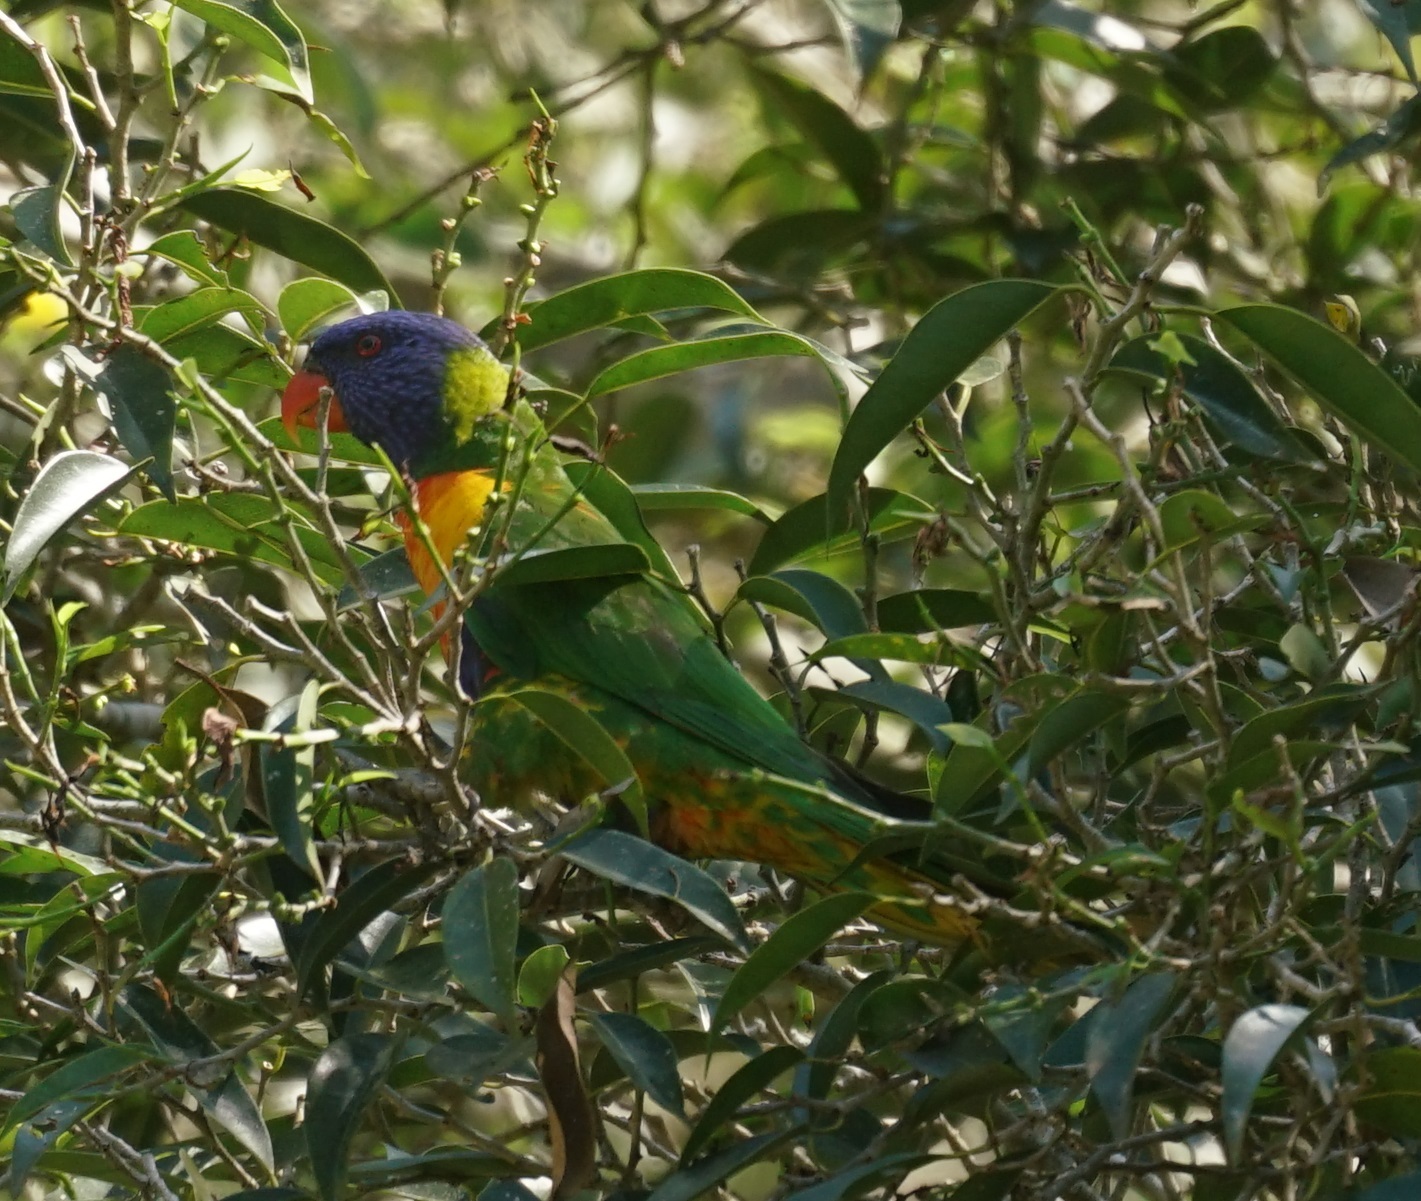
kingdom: Animalia
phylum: Chordata
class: Aves
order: Psittaciformes
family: Psittacidae
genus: Trichoglossus
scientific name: Trichoglossus haematodus
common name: Coconut lorikeet
